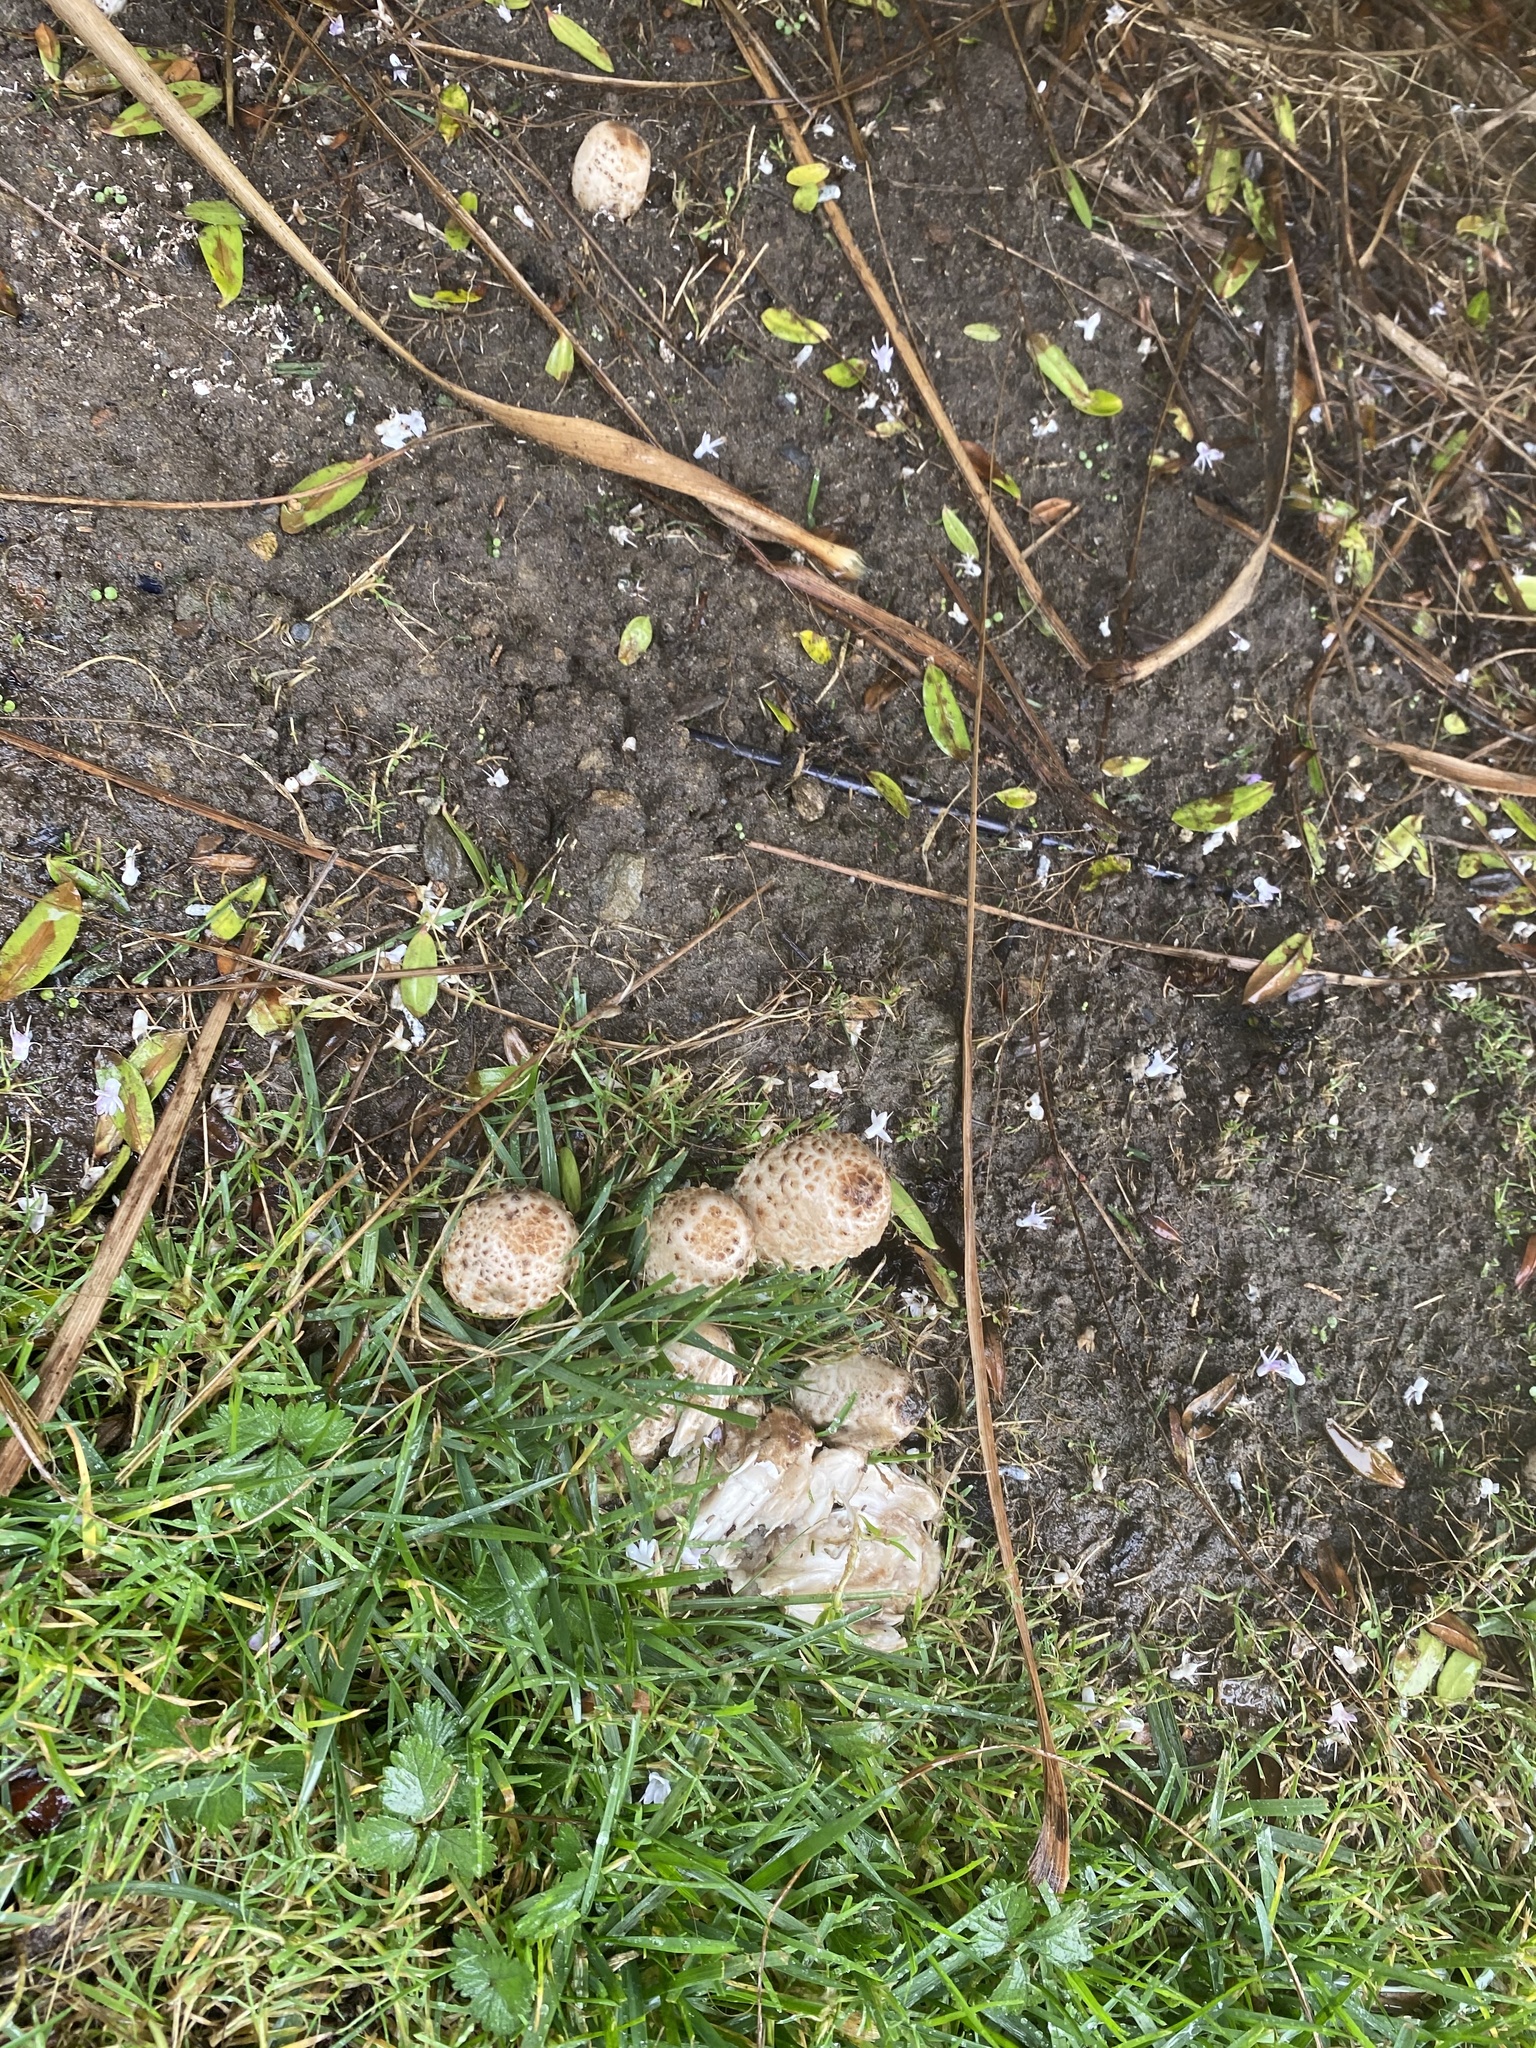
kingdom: Fungi
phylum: Basidiomycota
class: Agaricomycetes
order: Agaricales
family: Agaricaceae
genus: Coprinus
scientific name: Coprinus comatus
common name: Lawyer's wig
